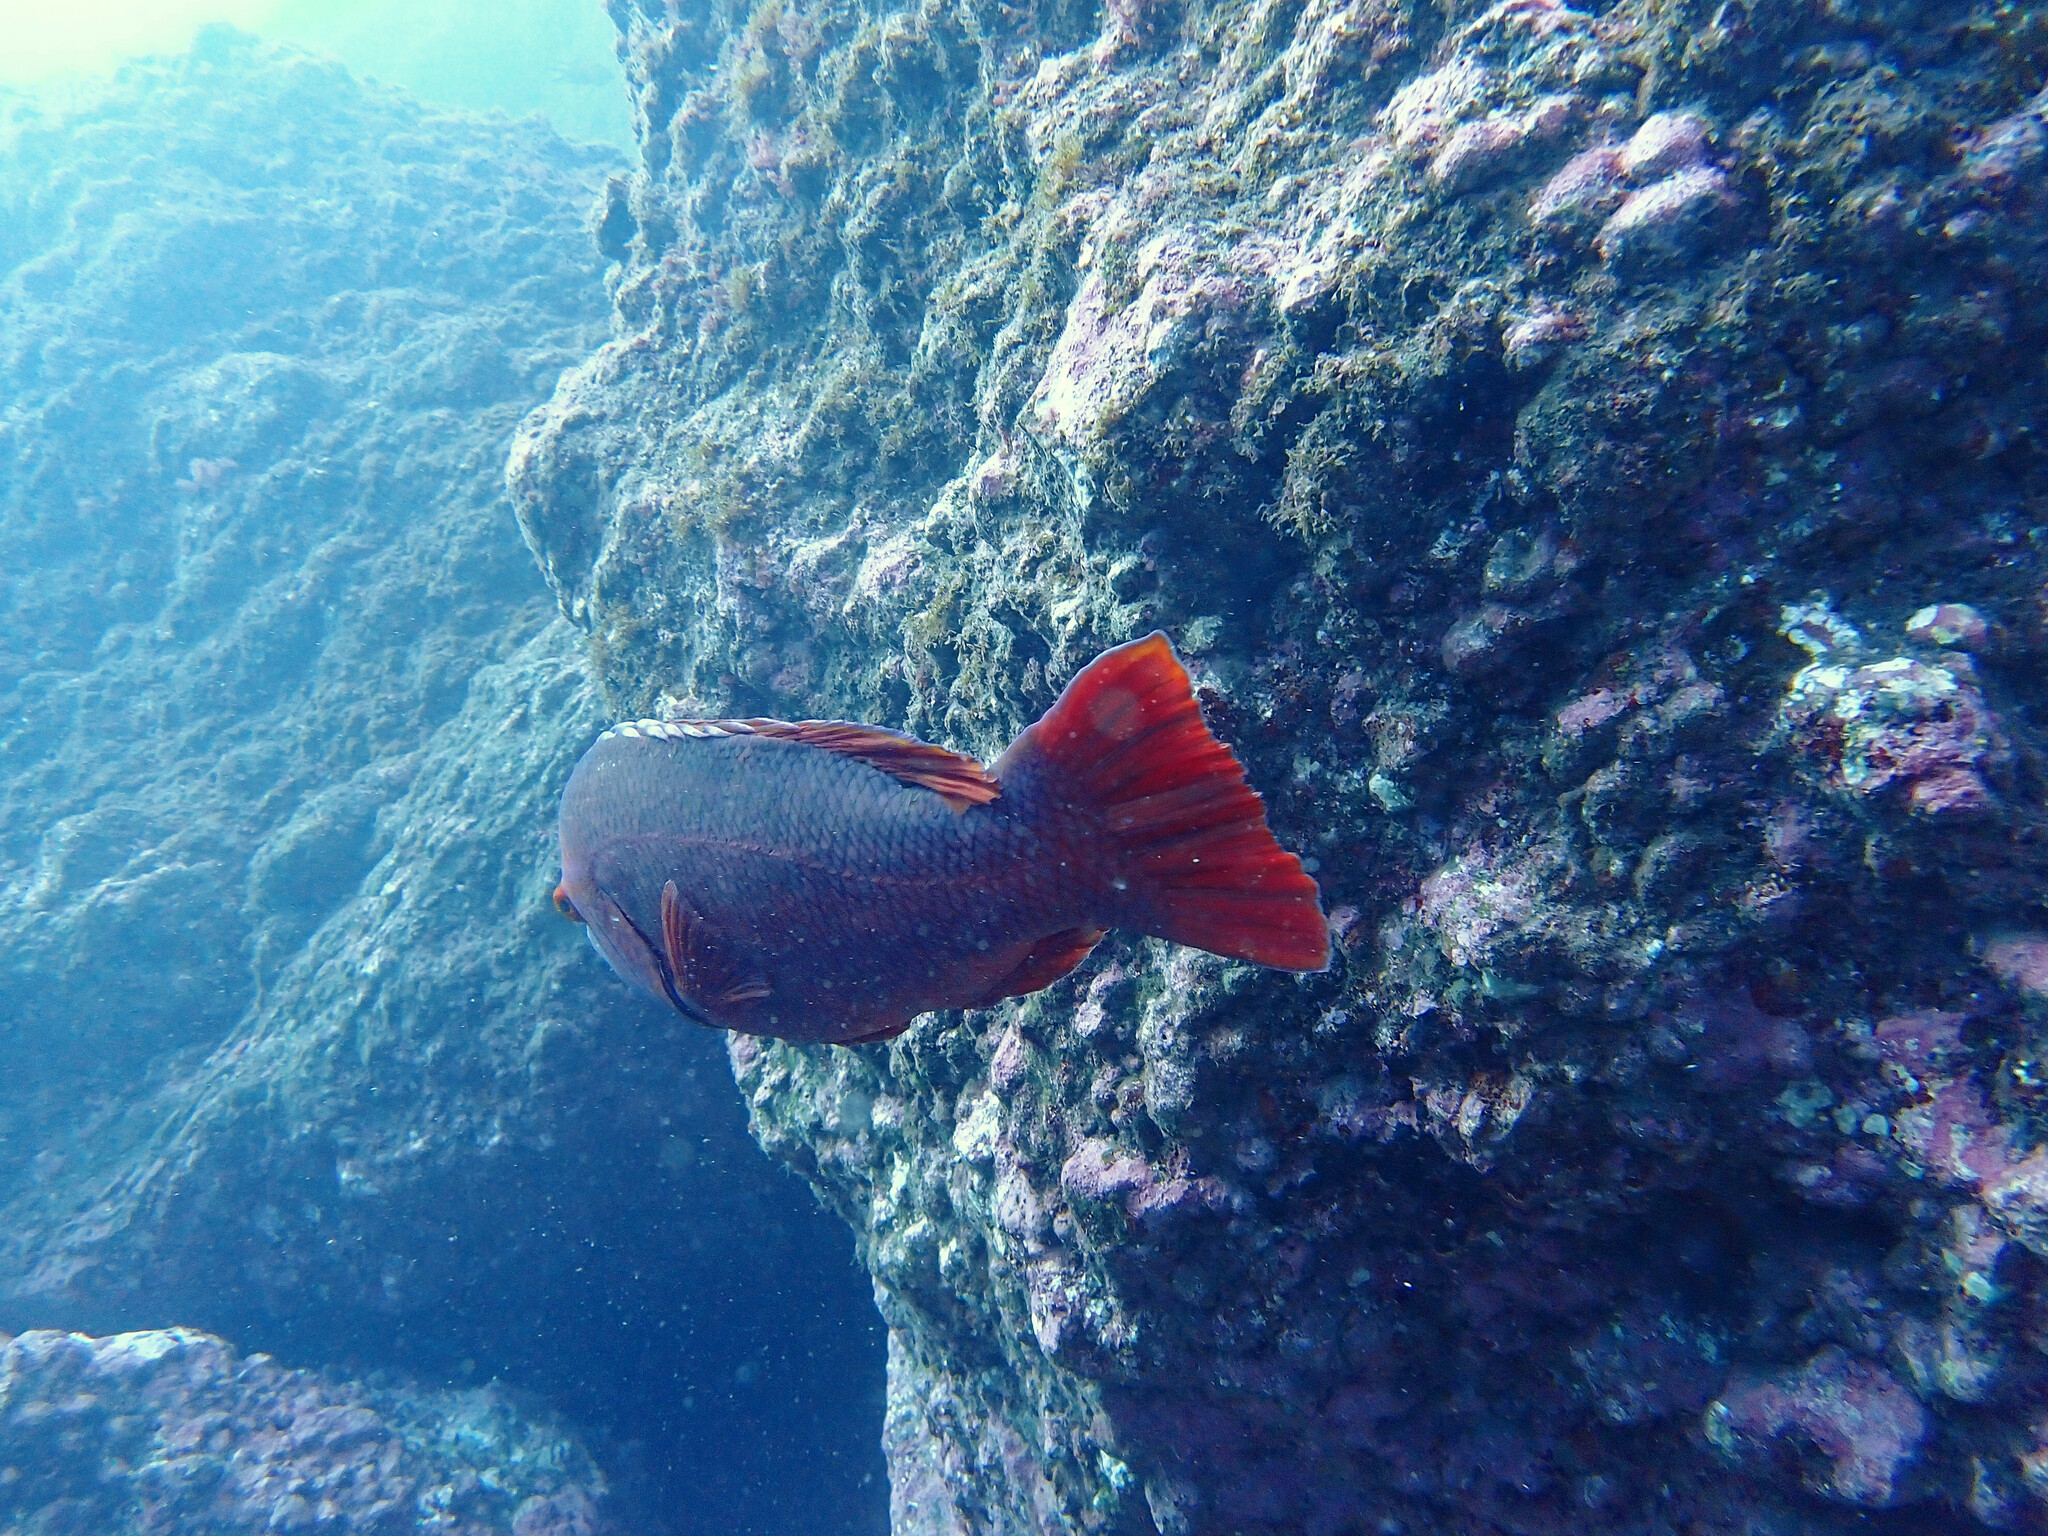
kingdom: Animalia
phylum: Chordata
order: Perciformes
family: Labridae
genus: Bodianus
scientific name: Bodianus scrofa
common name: Barred hogfish
